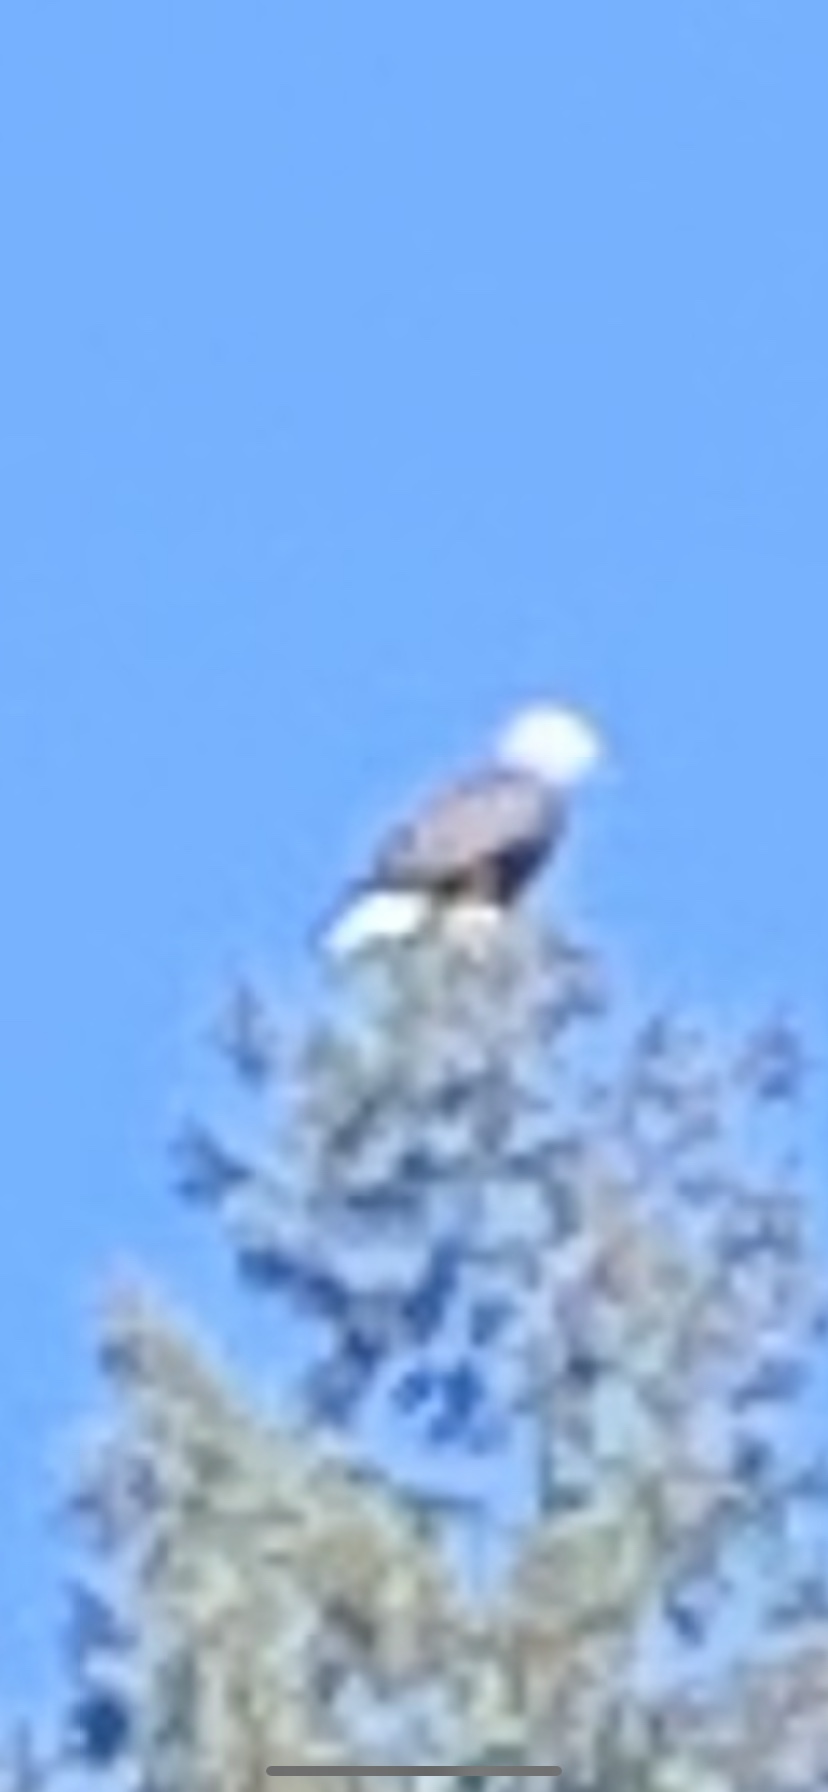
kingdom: Animalia
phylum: Chordata
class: Aves
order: Accipitriformes
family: Accipitridae
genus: Haliaeetus
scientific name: Haliaeetus leucocephalus
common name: Bald eagle
